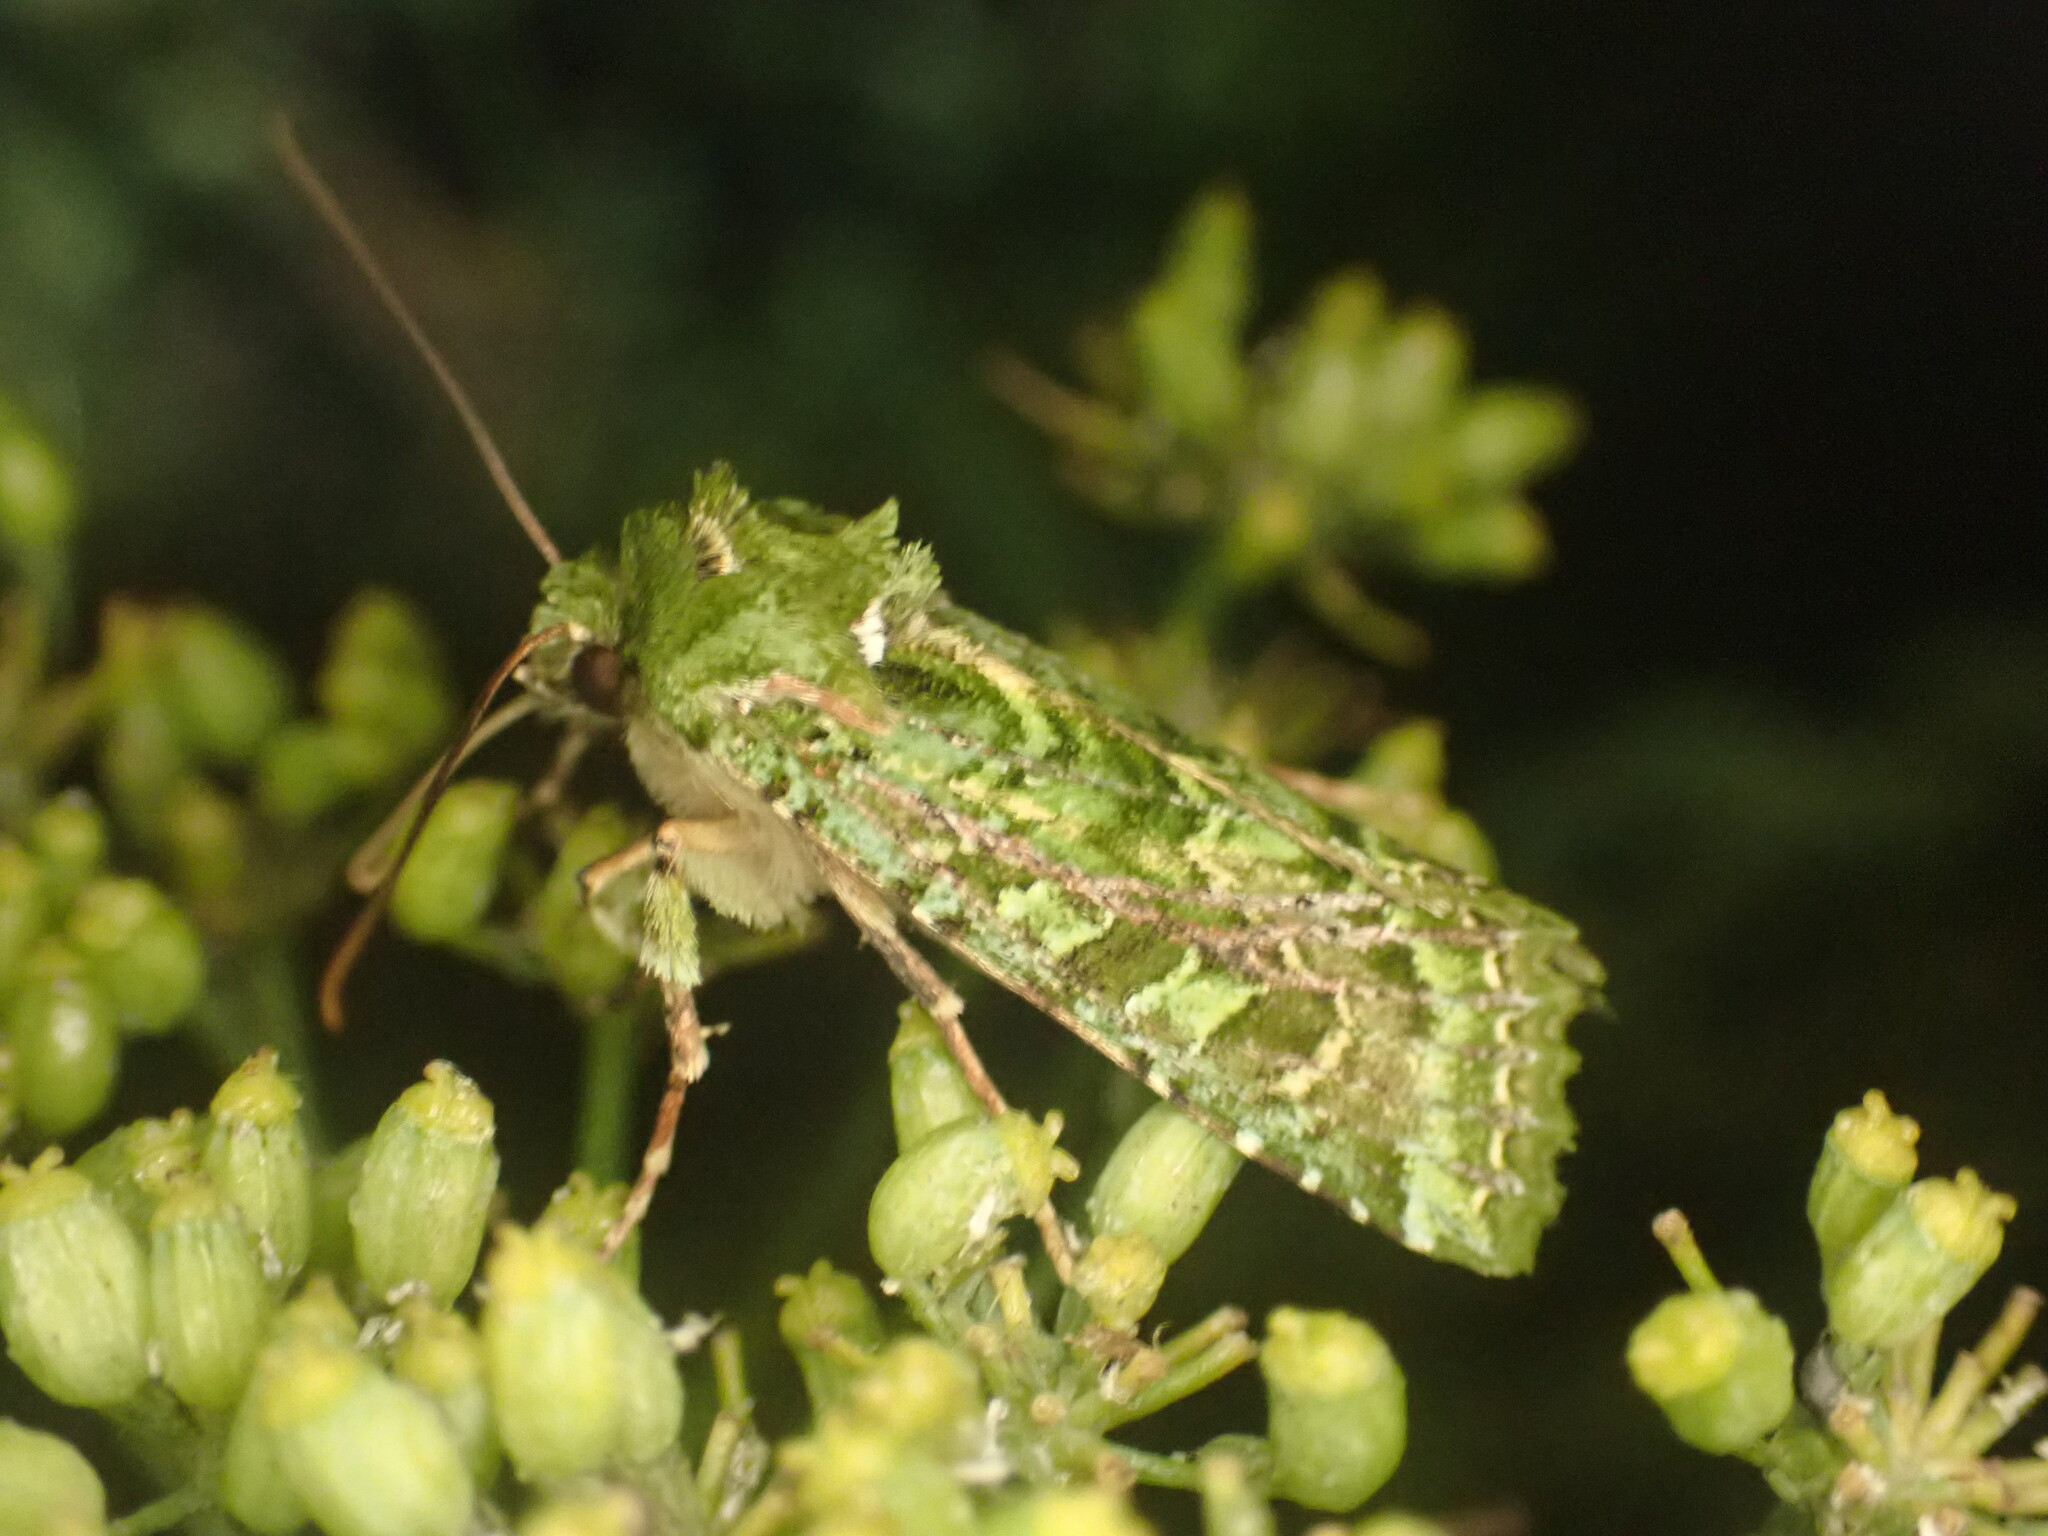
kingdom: Animalia
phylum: Arthropoda
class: Insecta
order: Lepidoptera
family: Noctuidae
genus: Feredayia
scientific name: Feredayia grammosa
